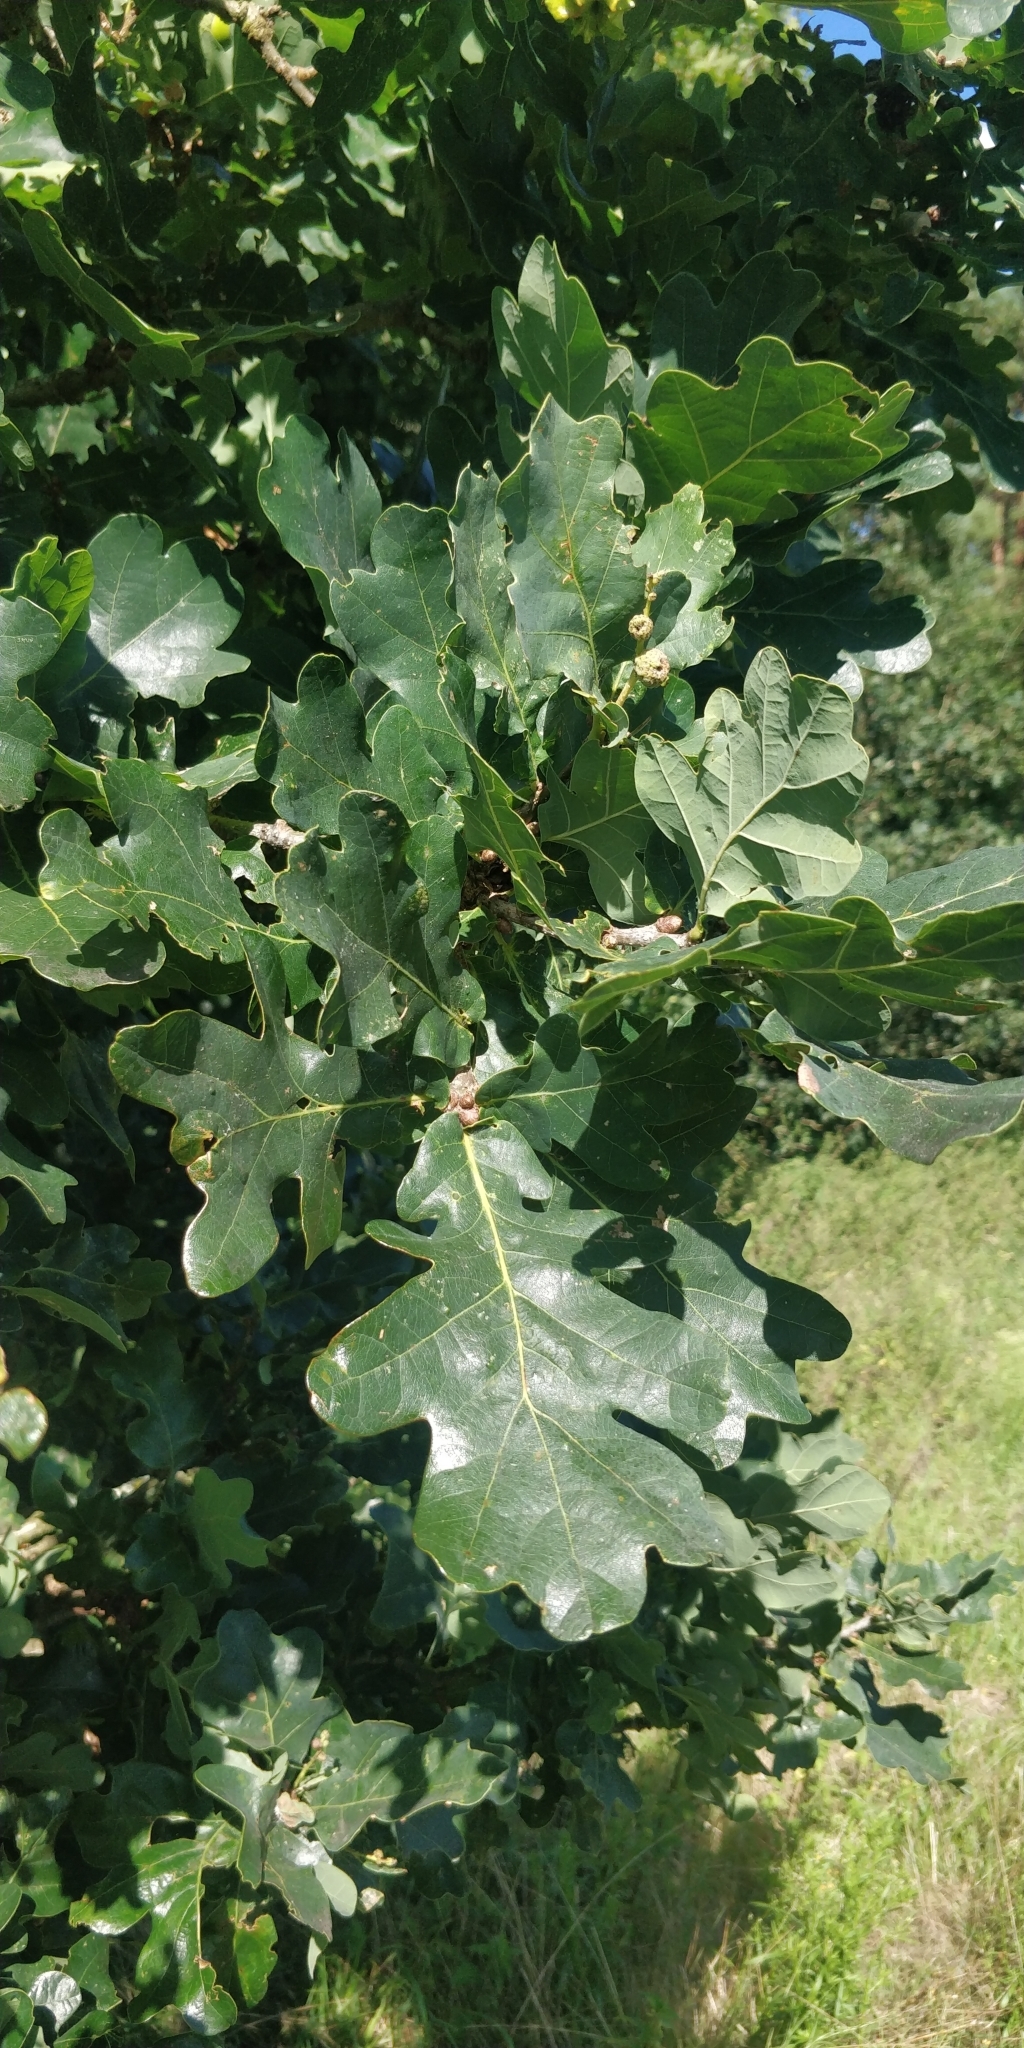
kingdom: Animalia
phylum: Arthropoda
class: Insecta
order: Hymenoptera
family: Cynipidae
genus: Andricus
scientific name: Andricus quercuscalicis
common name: Knopper gall
